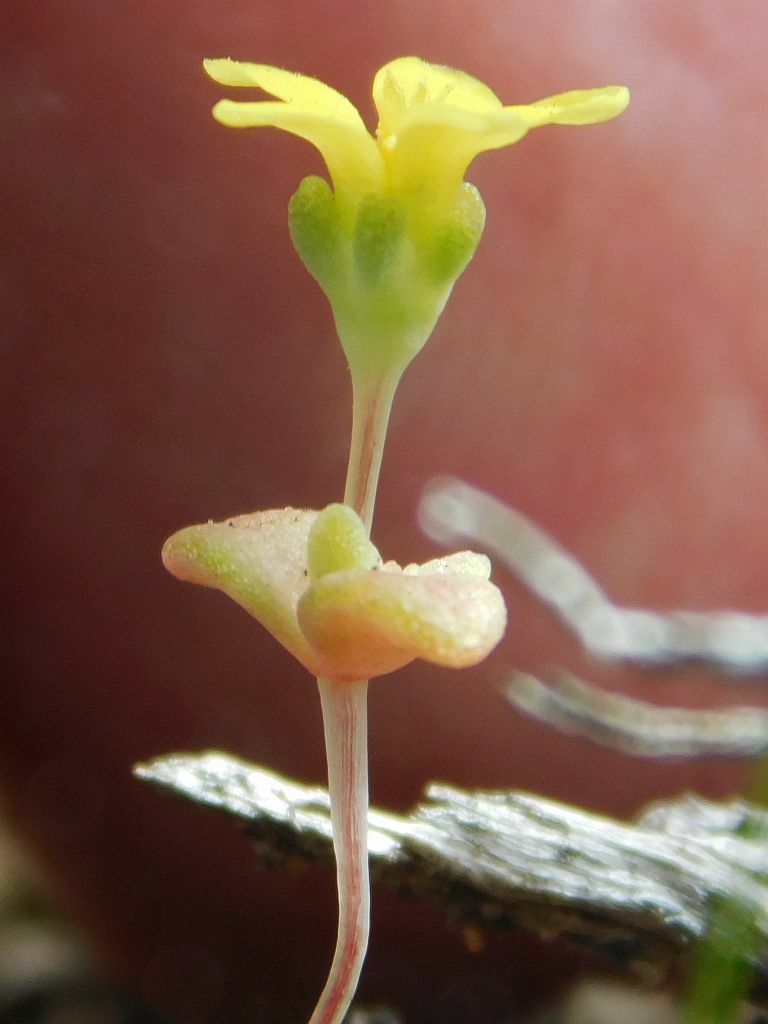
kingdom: Plantae
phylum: Tracheophyta
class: Magnoliopsida
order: Saxifragales
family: Crassulaceae
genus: Crassula
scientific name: Crassula sebaeoides
